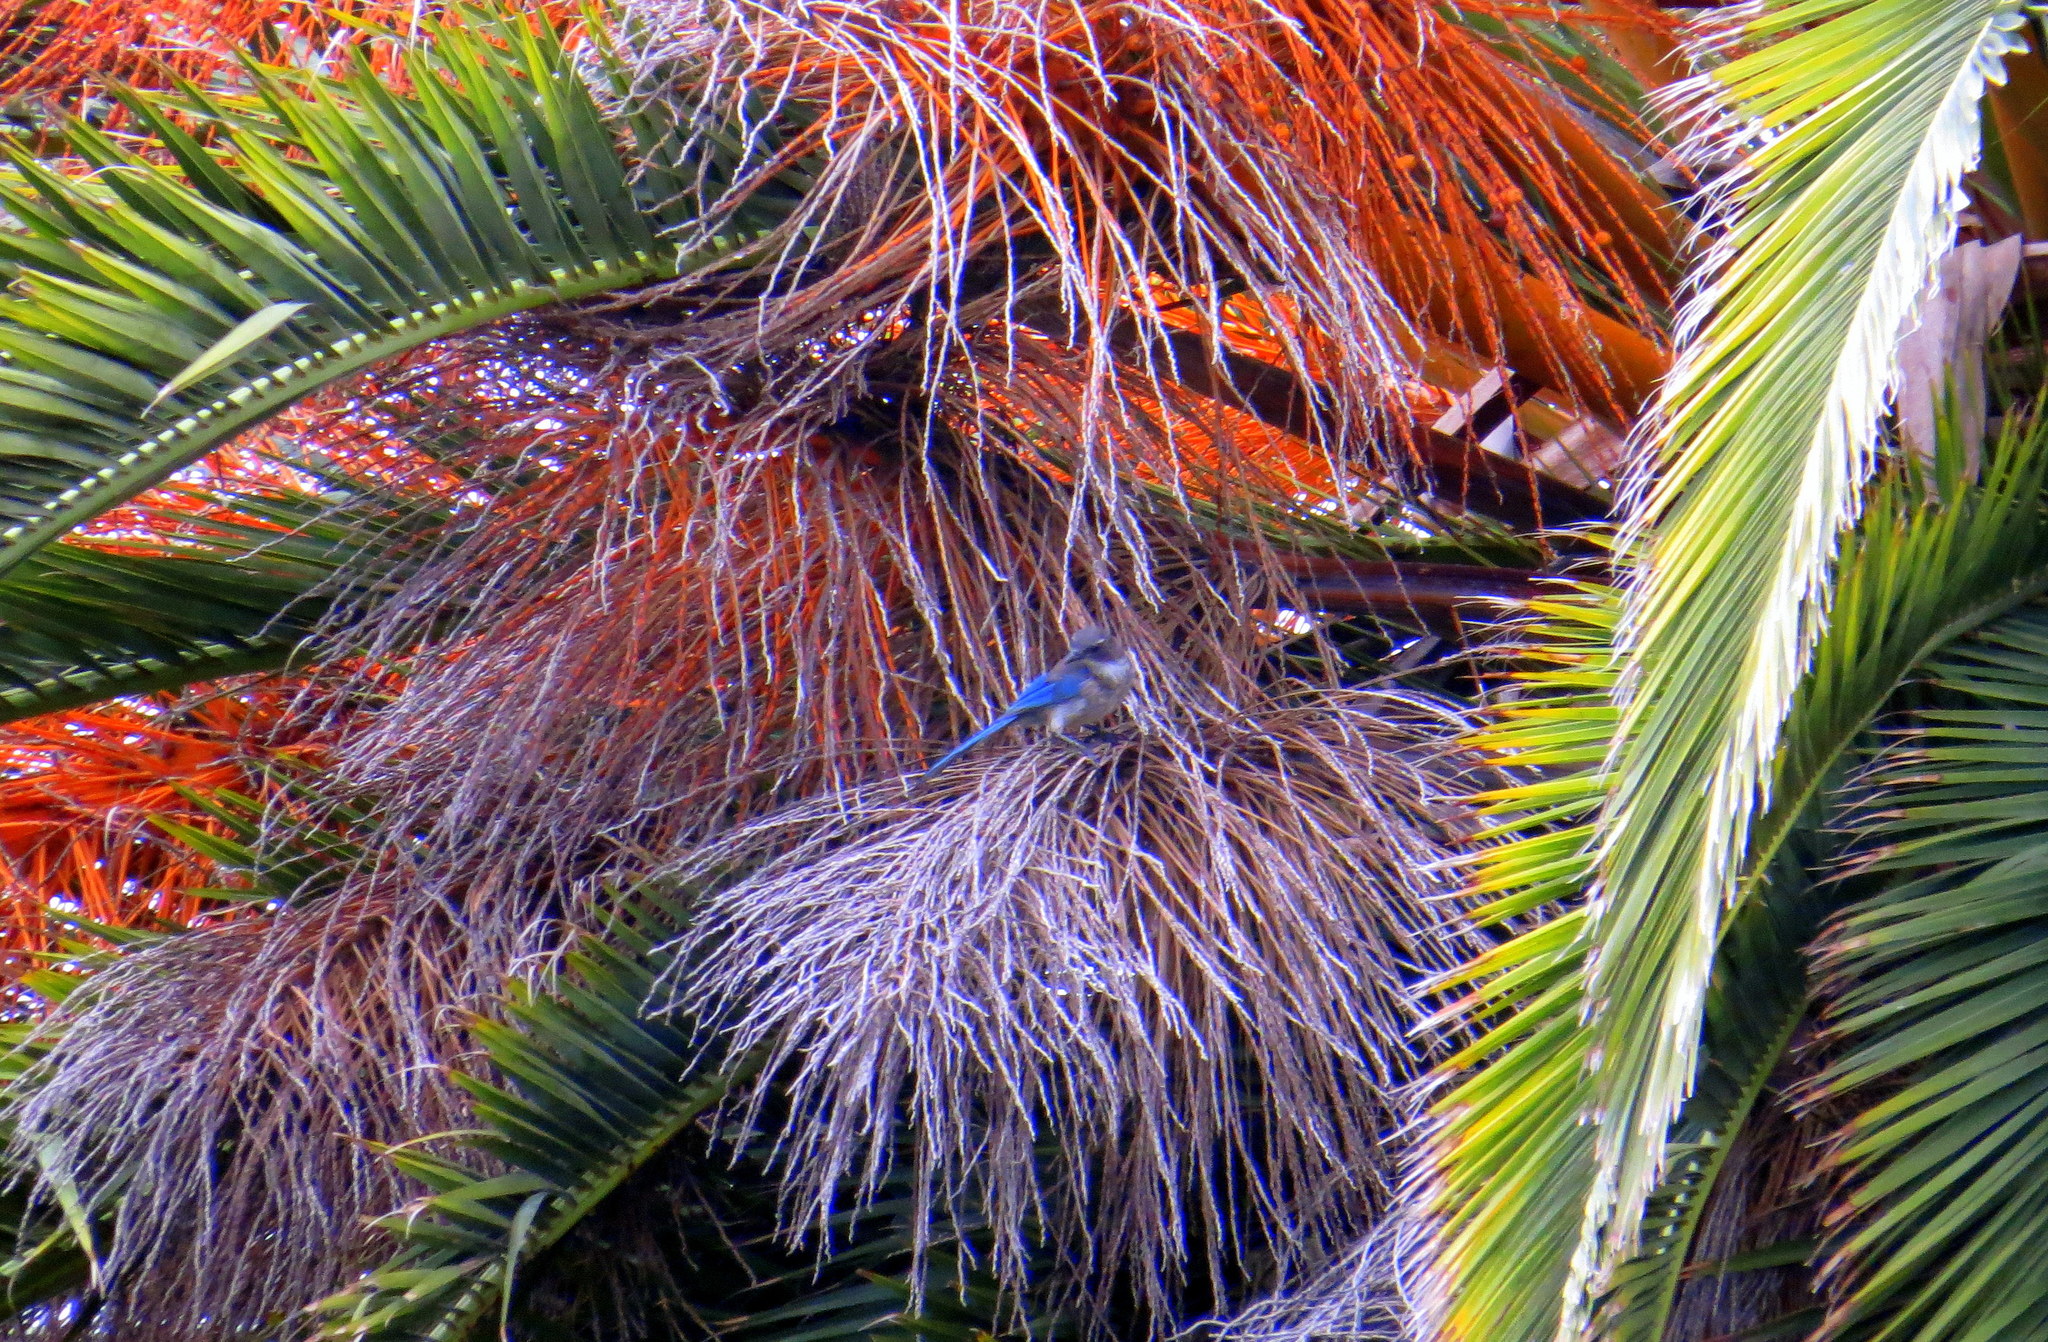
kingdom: Animalia
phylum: Chordata
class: Aves
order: Passeriformes
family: Corvidae
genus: Aphelocoma
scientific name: Aphelocoma californica
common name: California scrub-jay
